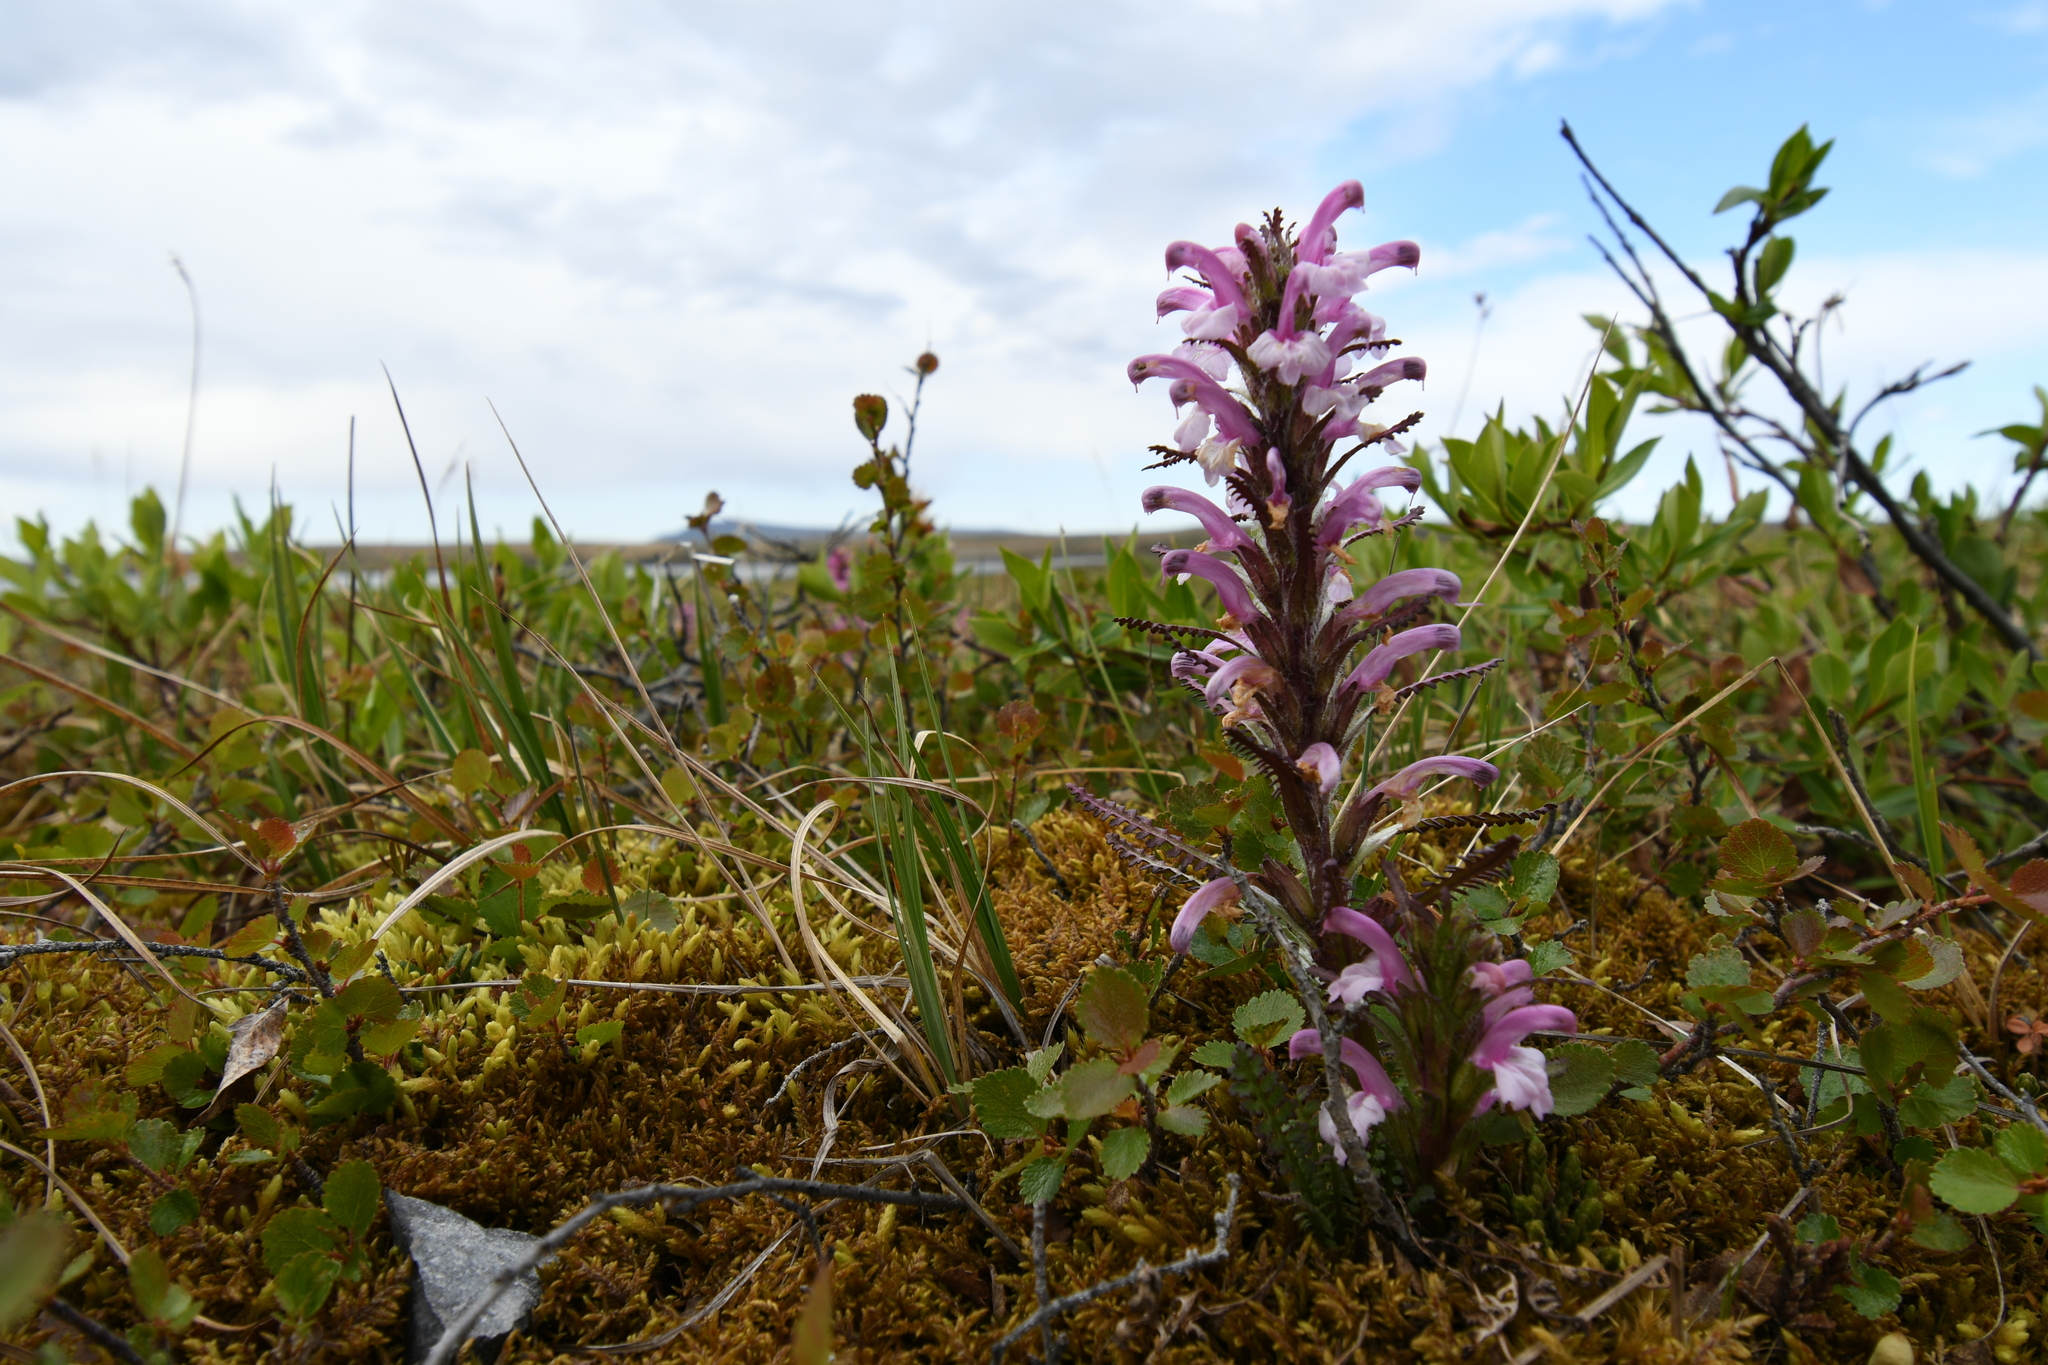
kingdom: Plantae
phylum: Tracheophyta
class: Magnoliopsida
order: Lamiales
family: Orobanchaceae
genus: Pedicularis
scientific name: Pedicularis langsdorffii
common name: Langsdorff's lousewort
